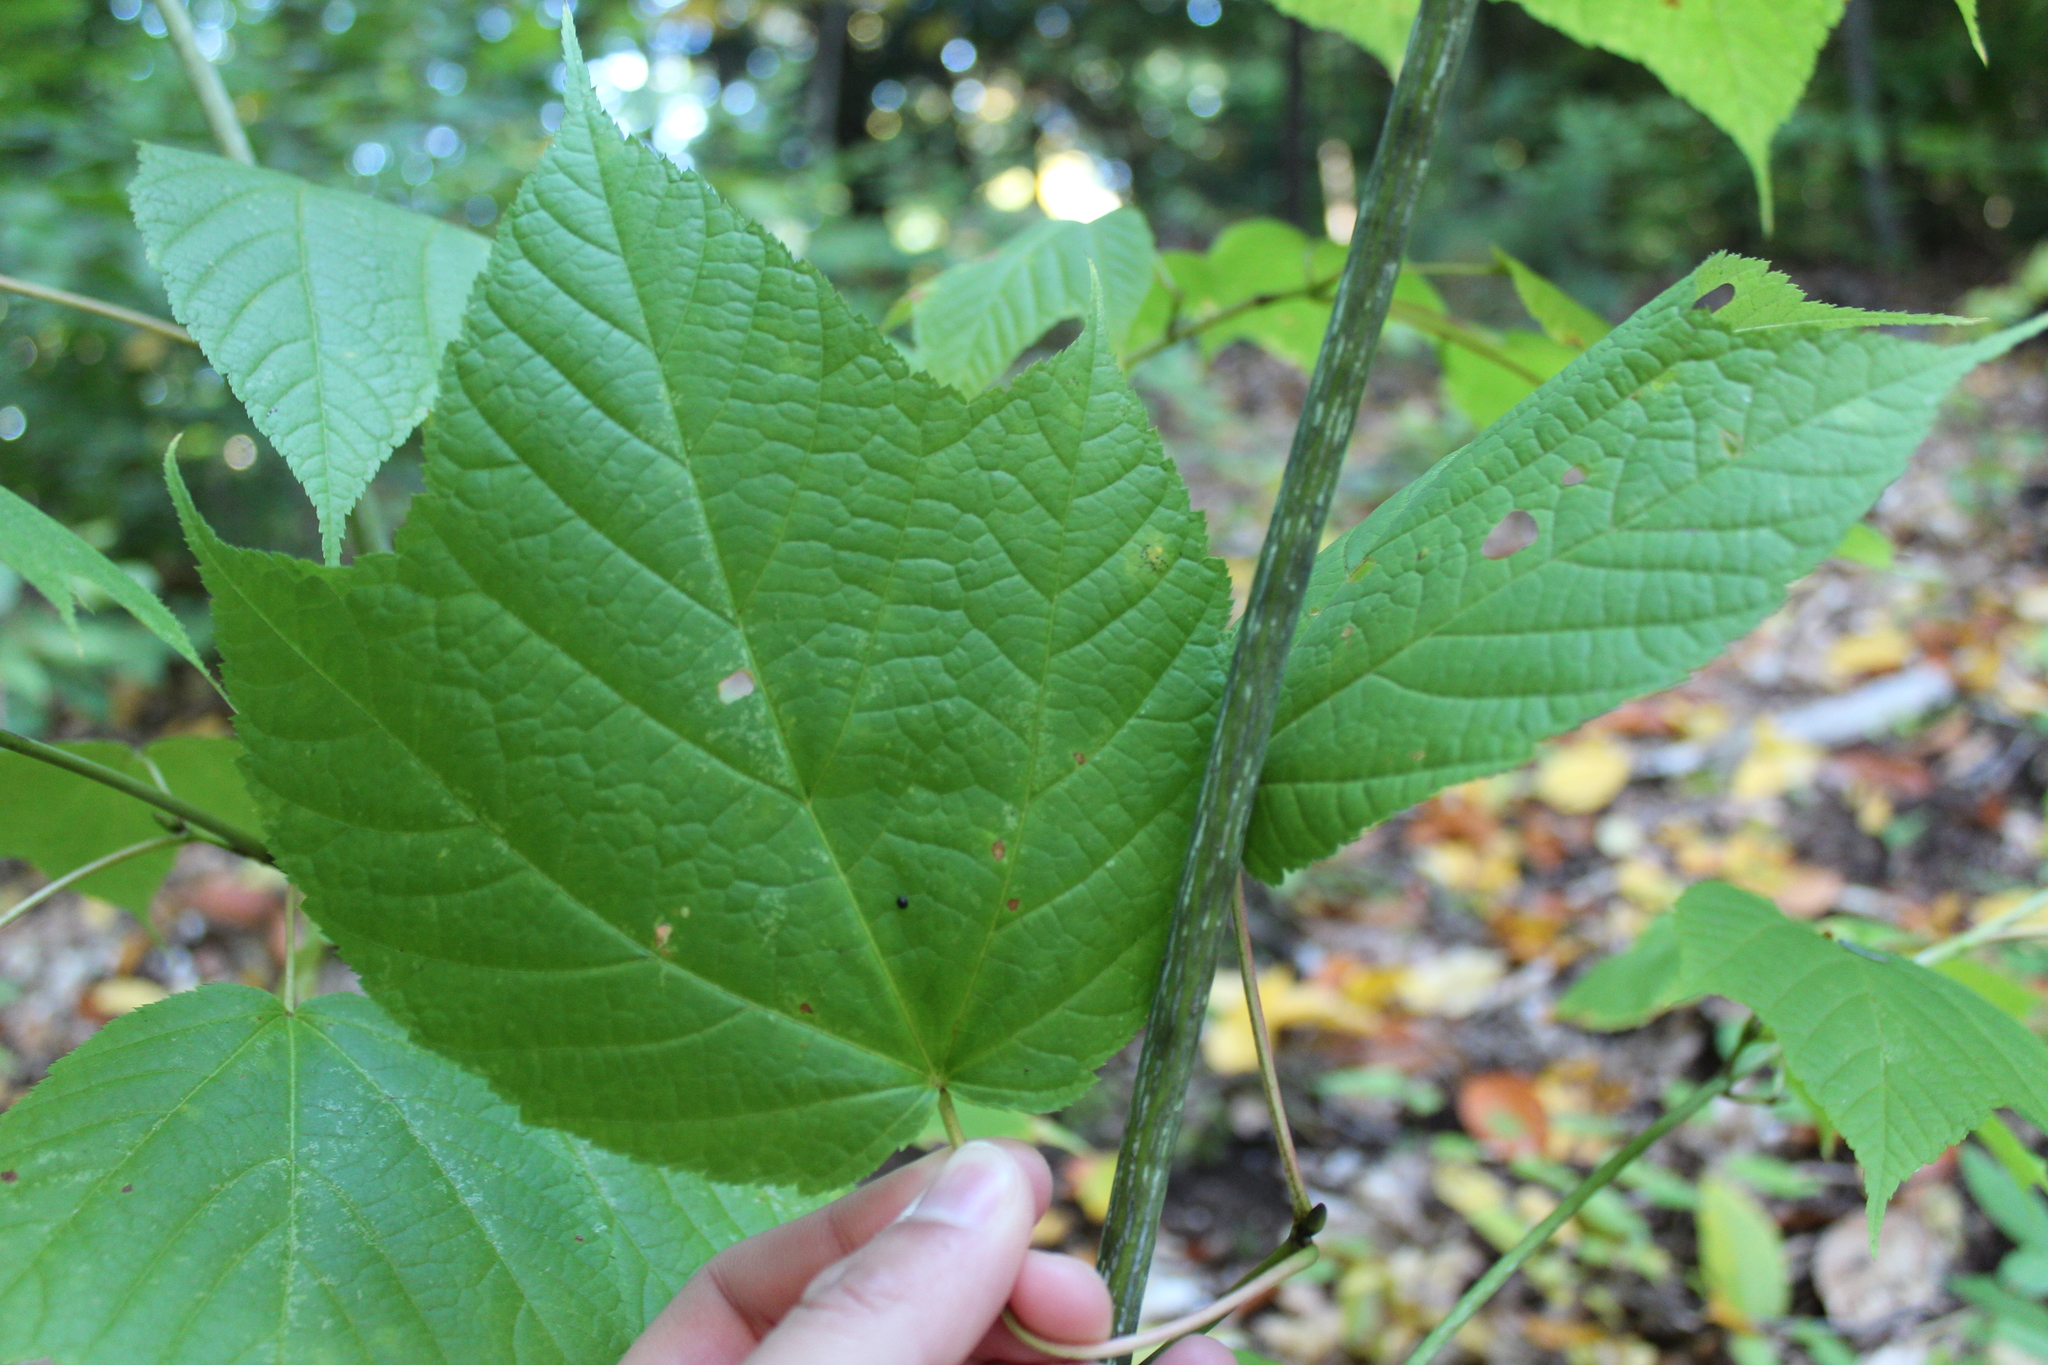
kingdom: Plantae
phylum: Tracheophyta
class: Magnoliopsida
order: Sapindales
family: Sapindaceae
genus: Acer
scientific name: Acer pensylvanicum
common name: Moosewood
